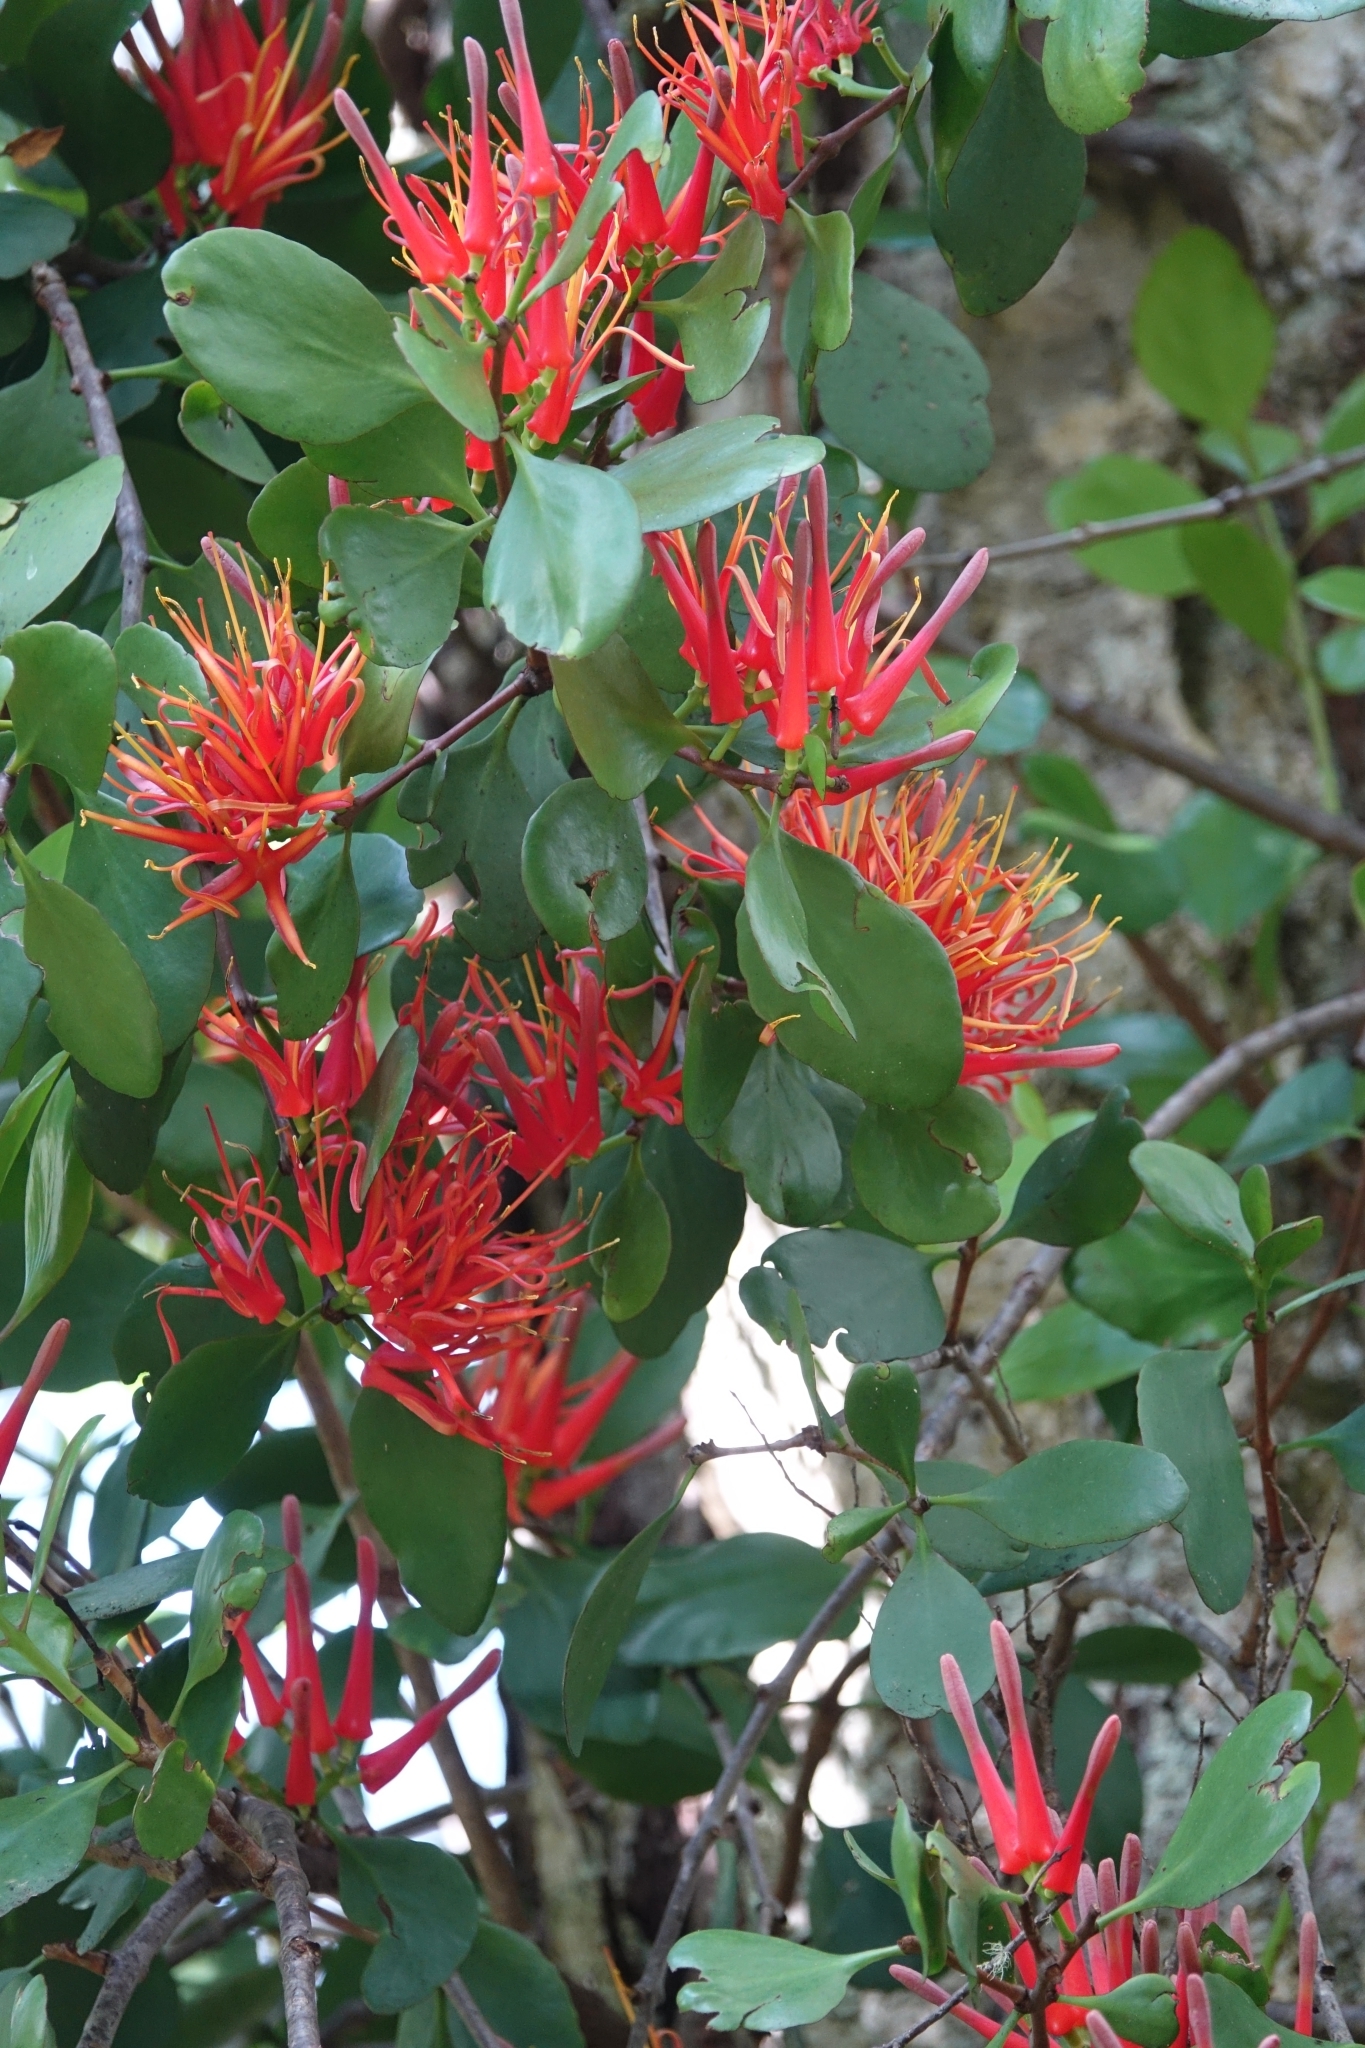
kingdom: Plantae
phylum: Tracheophyta
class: Magnoliopsida
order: Santalales
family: Loranthaceae
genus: Peraxilla
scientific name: Peraxilla colensoi
